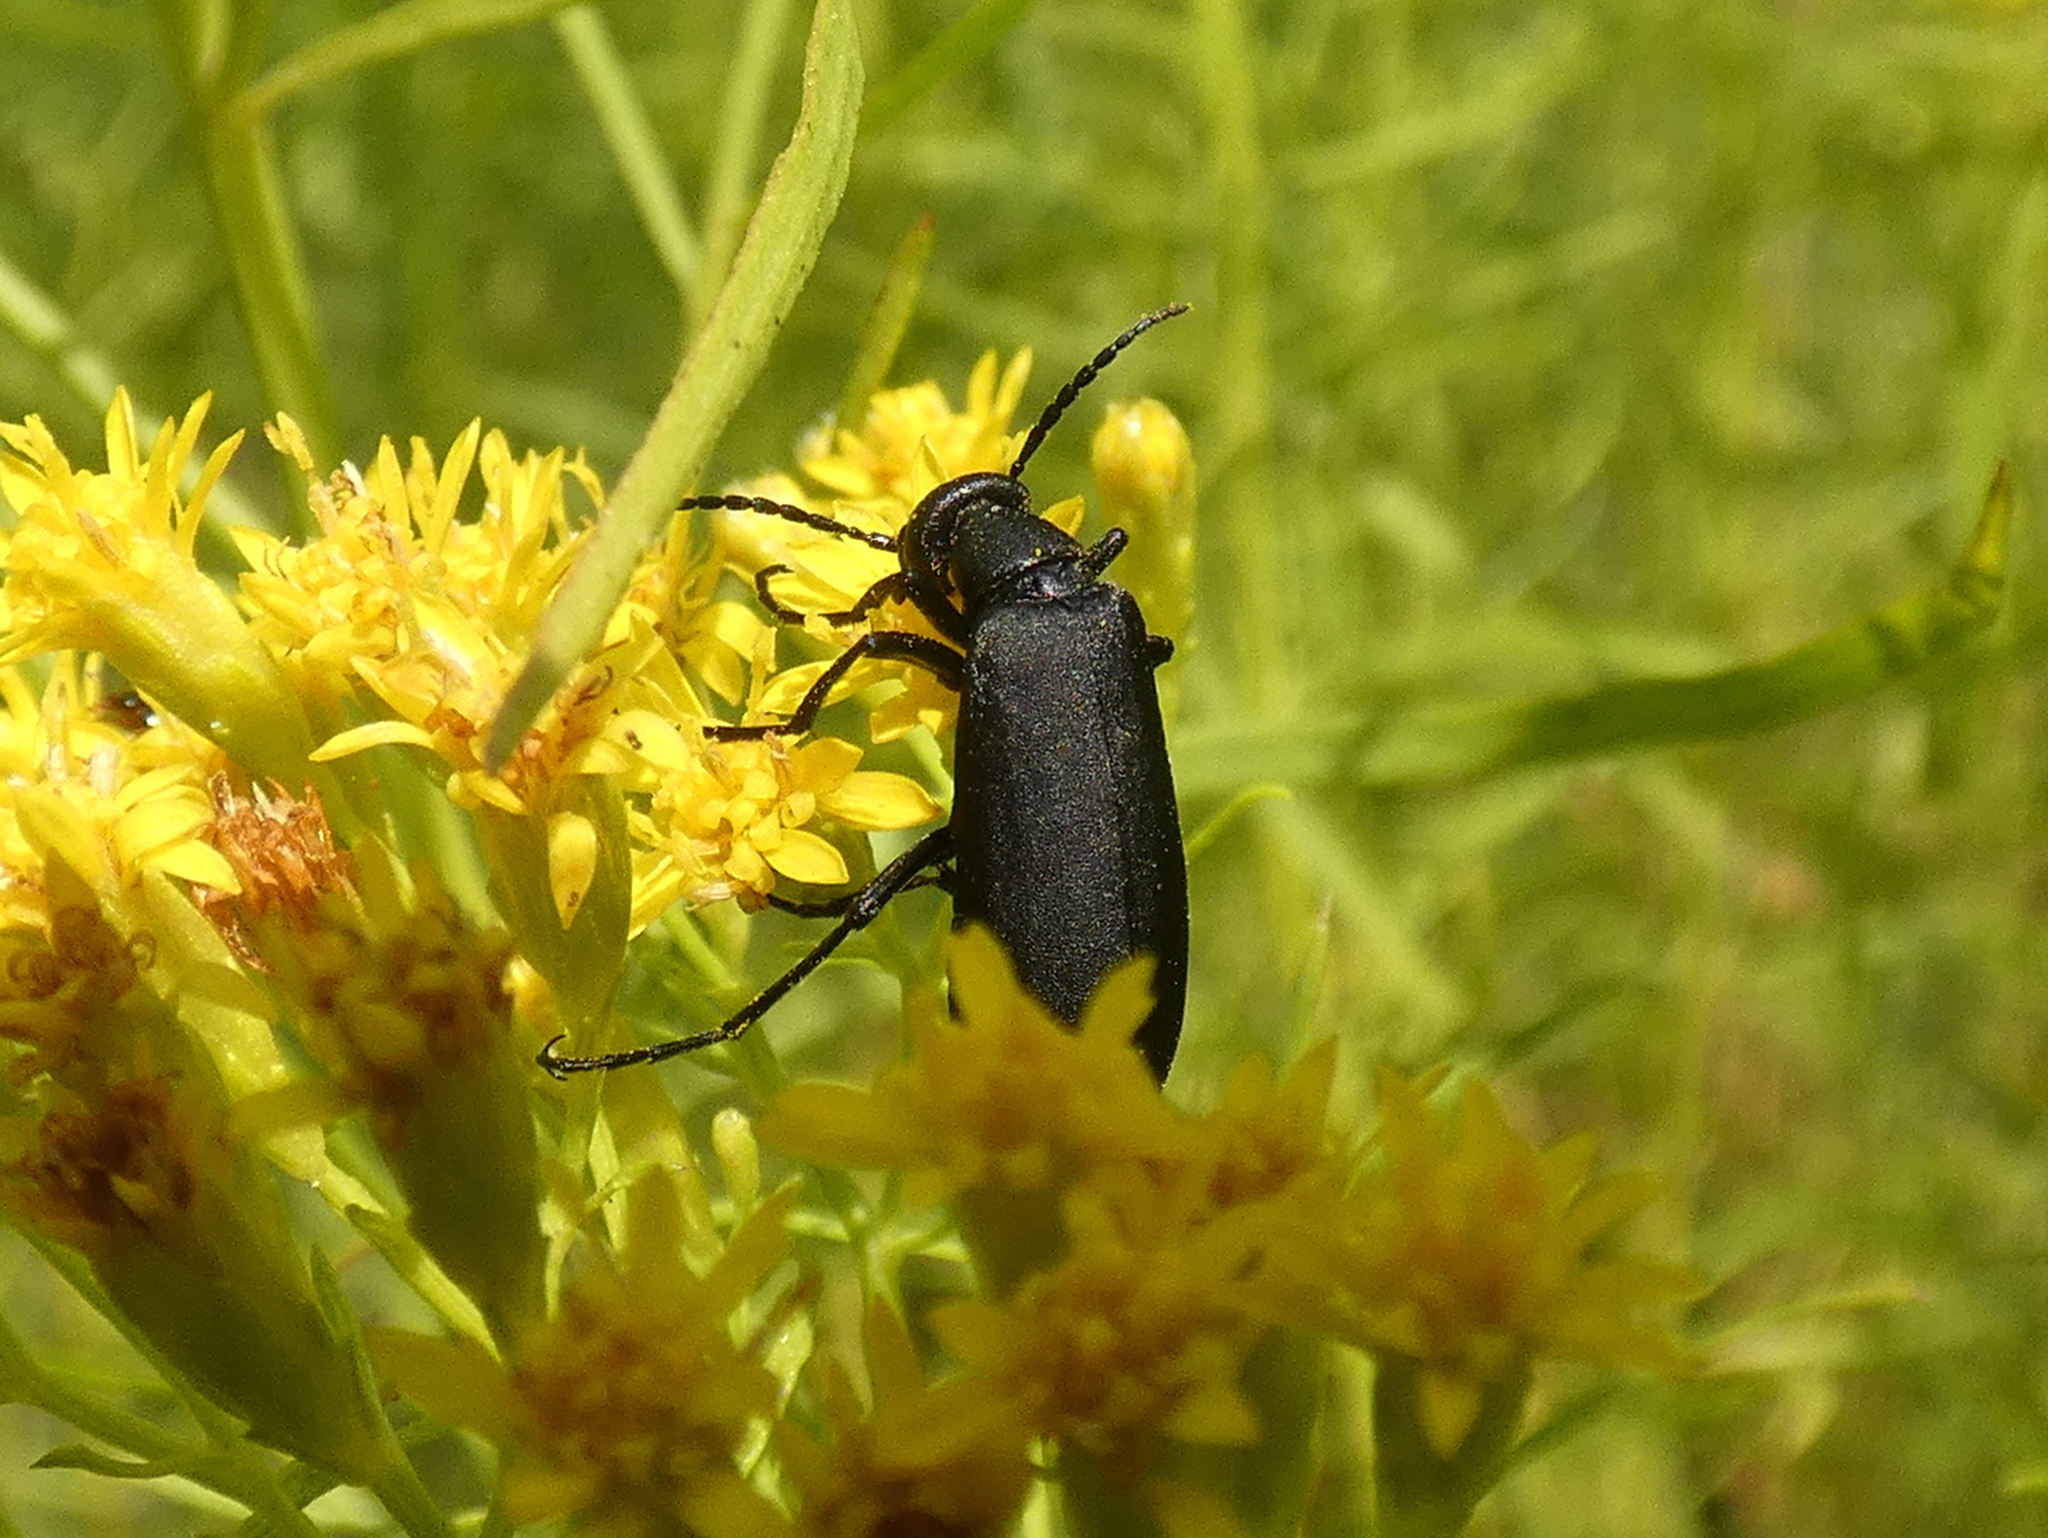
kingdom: Animalia
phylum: Arthropoda
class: Insecta
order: Coleoptera
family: Meloidae
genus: Epicauta
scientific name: Epicauta pensylvanica
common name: Black blister beetle
